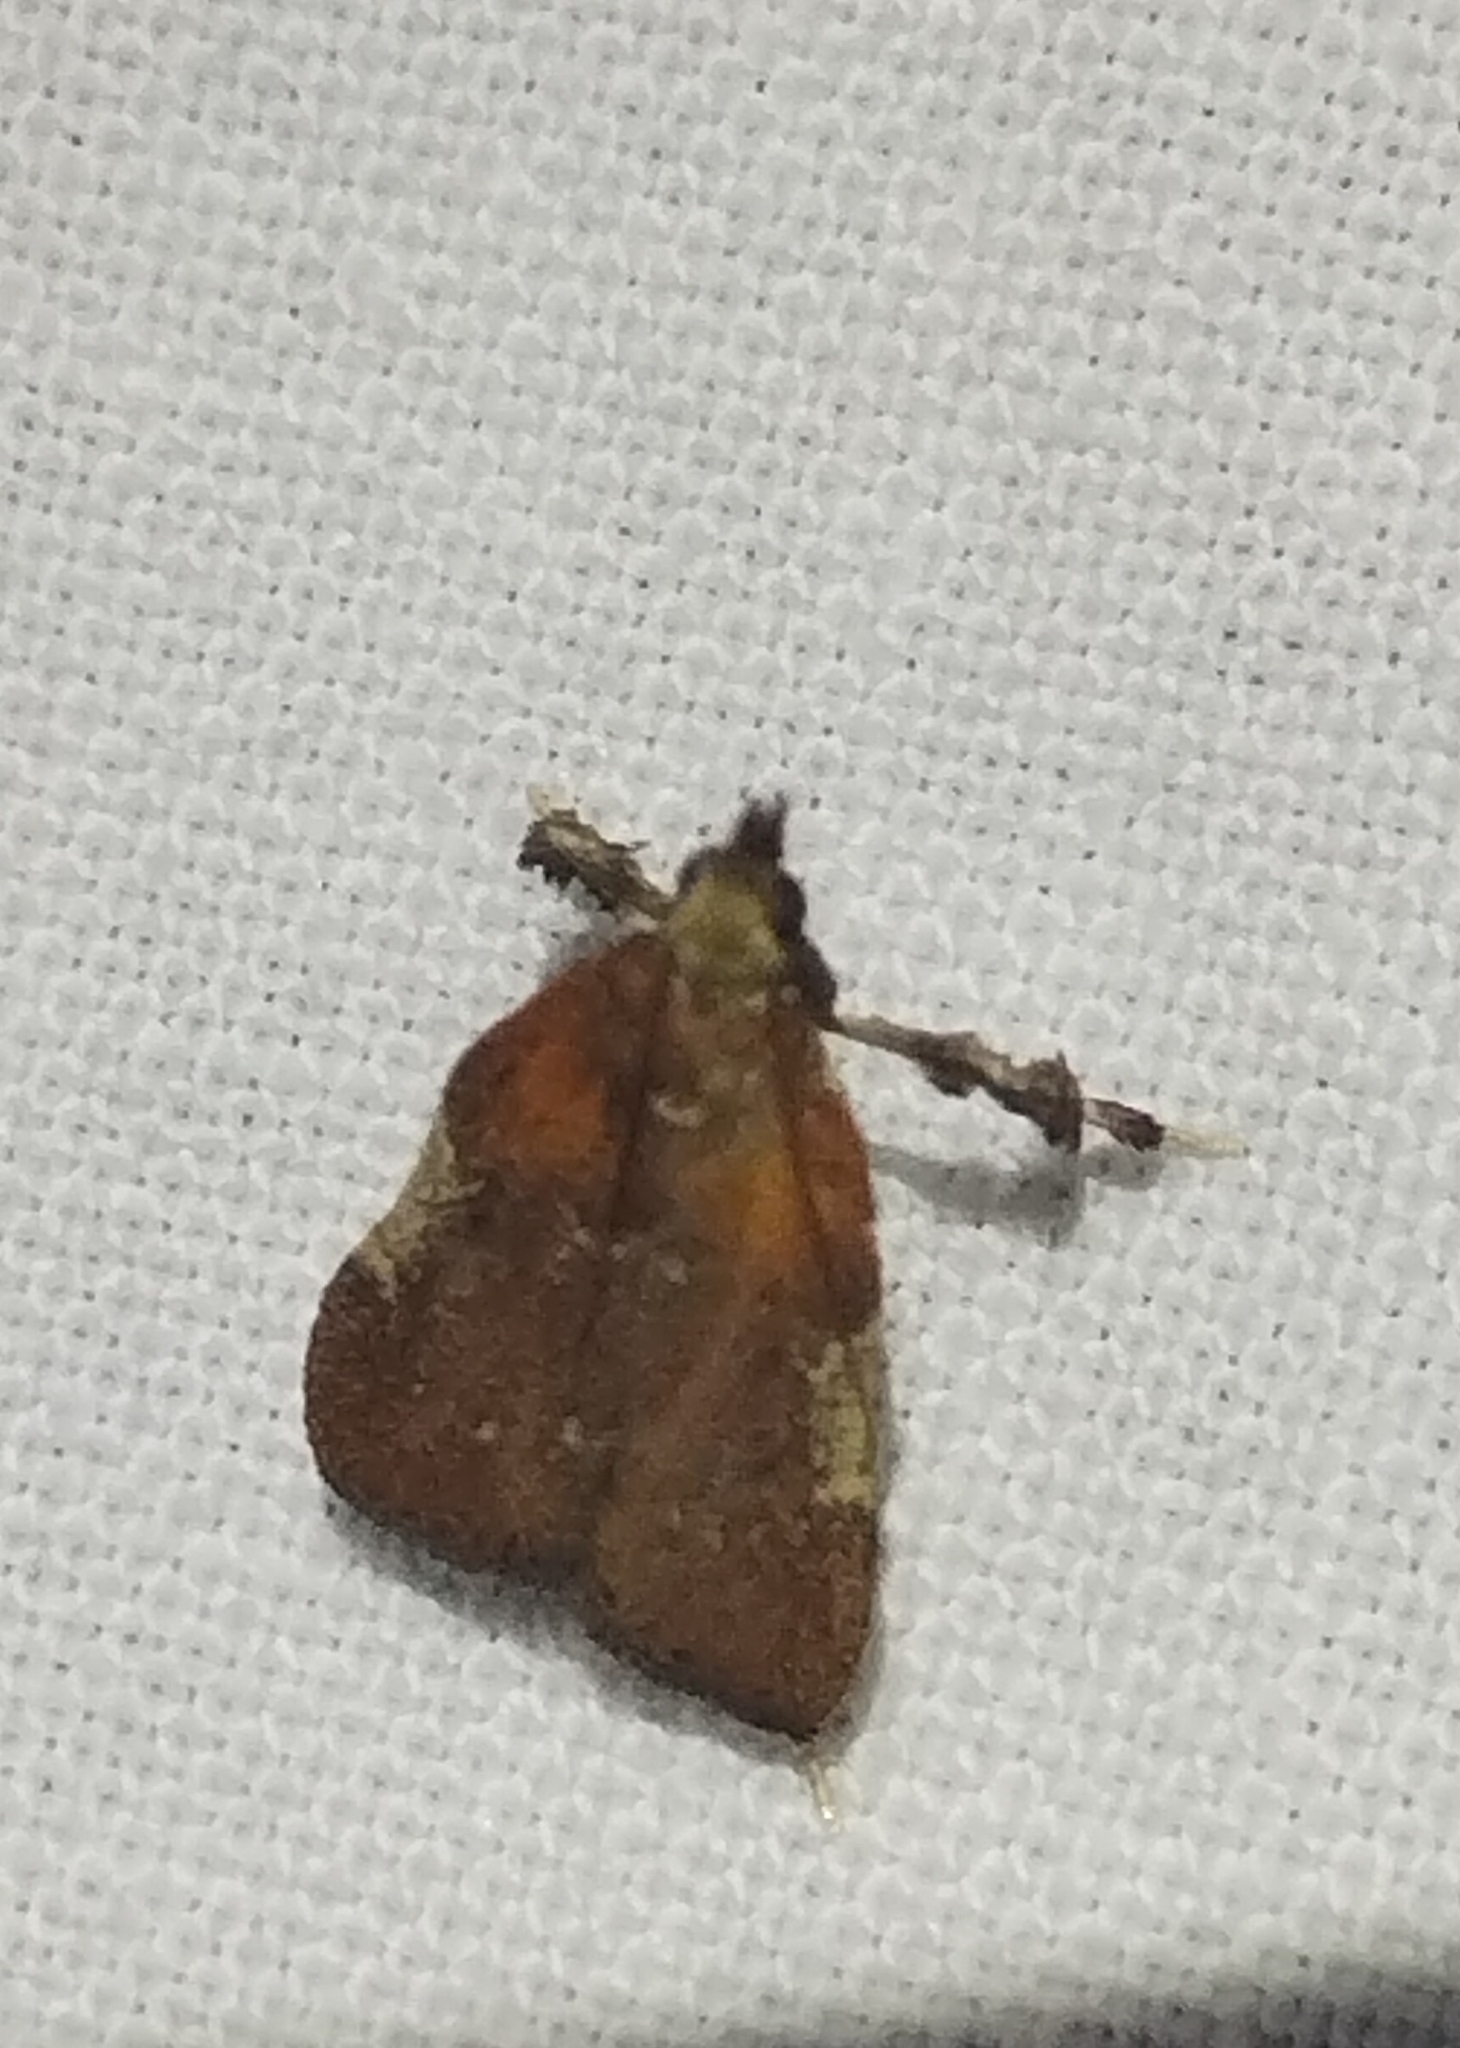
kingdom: Animalia
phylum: Arthropoda
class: Insecta
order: Lepidoptera
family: Pyralidae
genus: Galasa
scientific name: Galasa nigrinodis
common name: Boxwood leaftier moth
